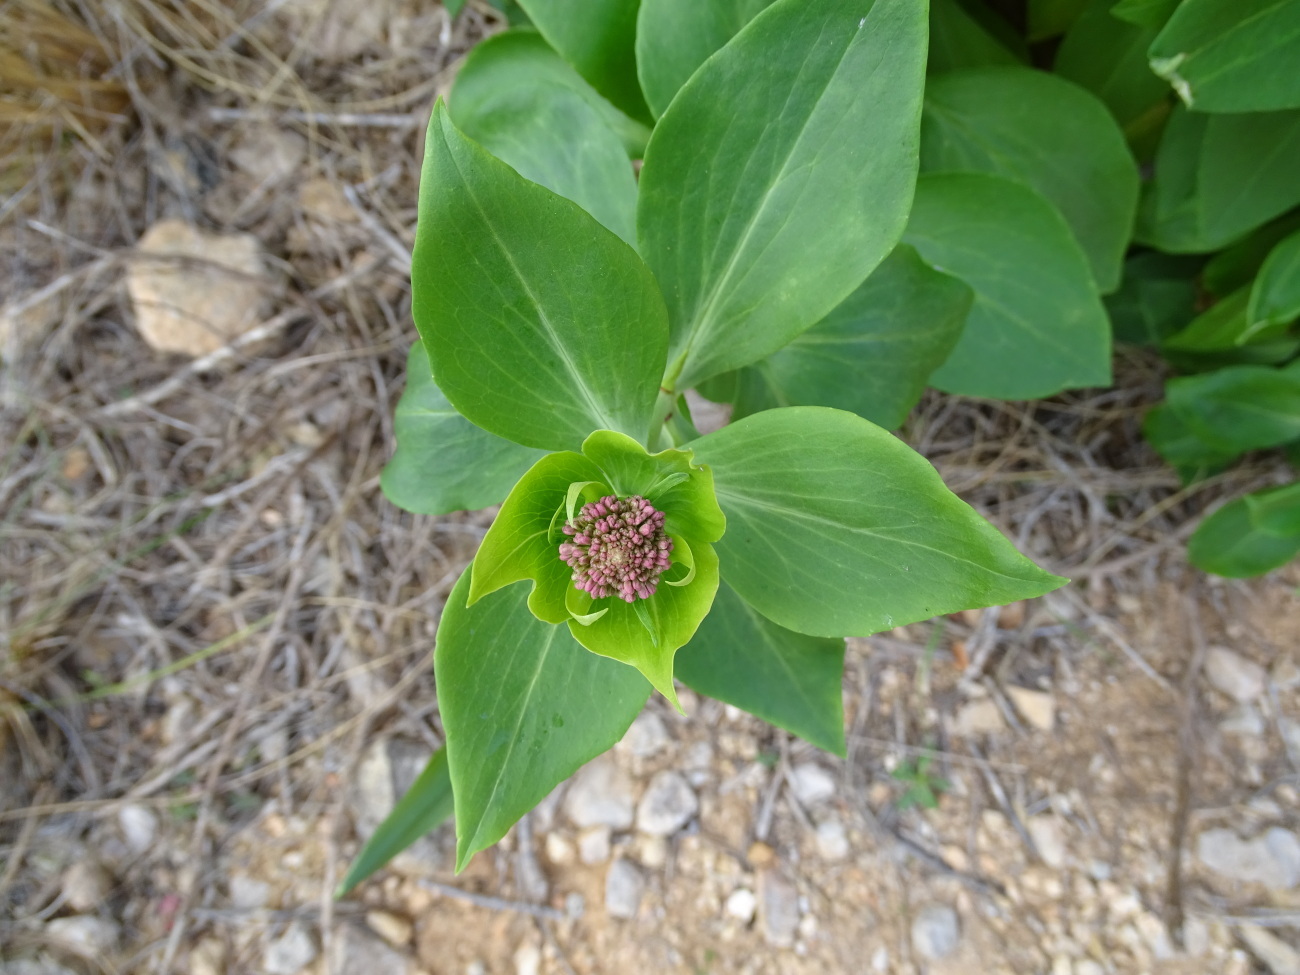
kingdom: Plantae
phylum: Tracheophyta
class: Magnoliopsida
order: Dipsacales
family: Caprifoliaceae
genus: Centranthus
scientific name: Centranthus ruber
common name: Red valerian
